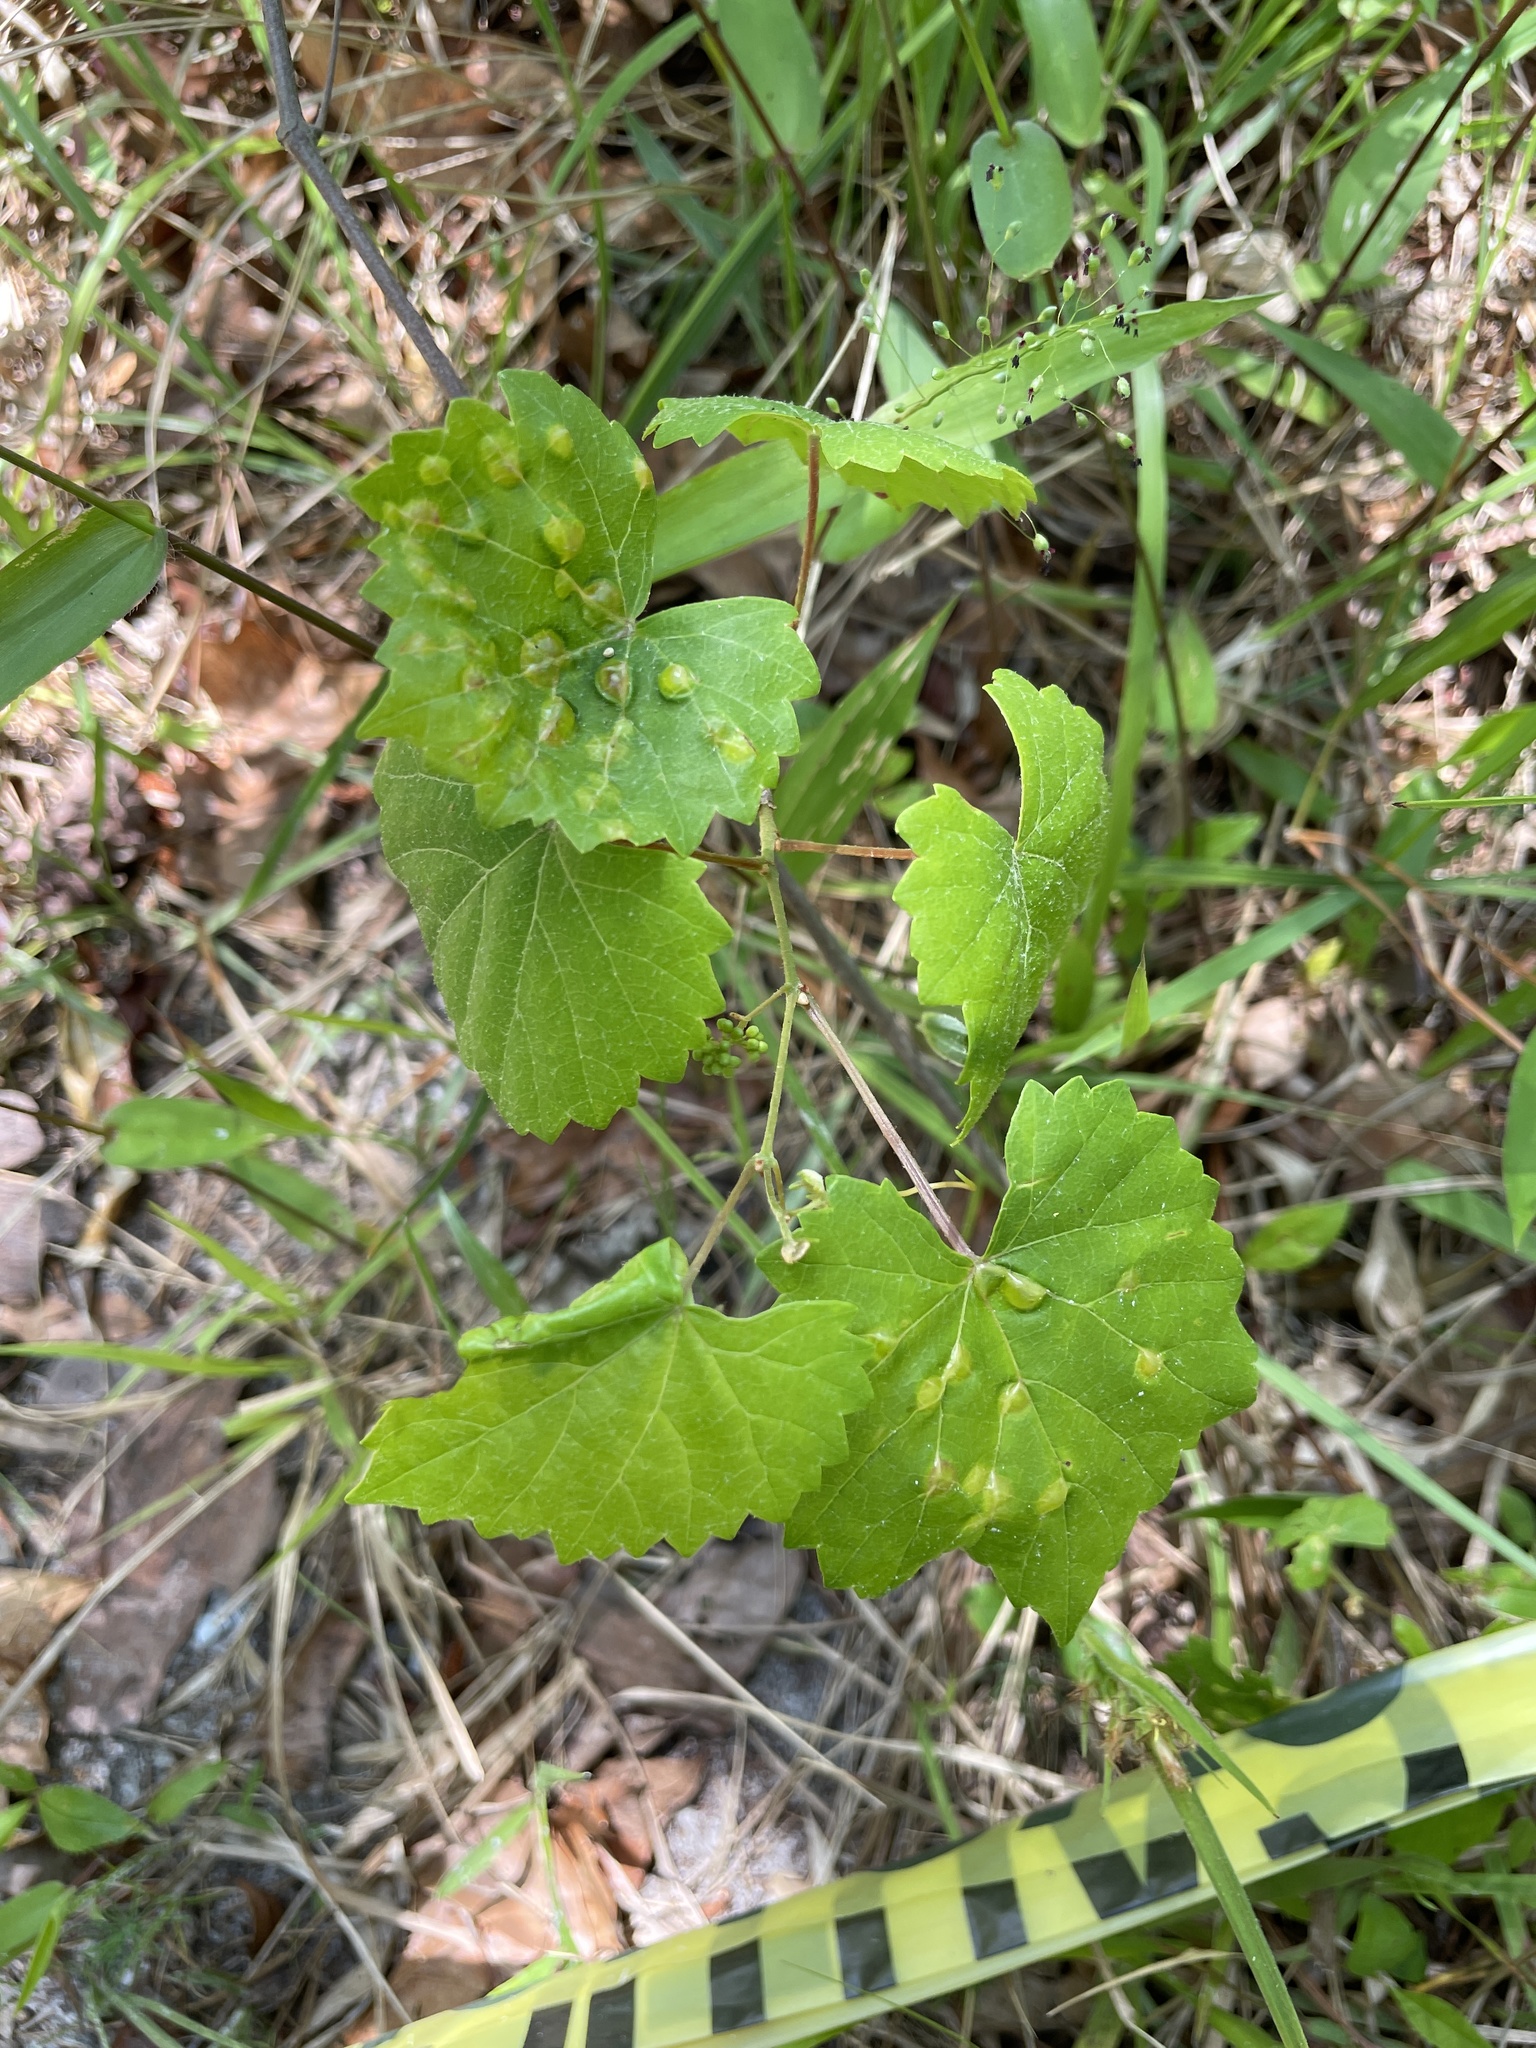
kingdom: Animalia
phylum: Arthropoda
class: Insecta
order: Diptera
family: Cecidomyiidae
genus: Vitisiella
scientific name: Vitisiella brevicauda
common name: Grape tumid gallmaker midge
